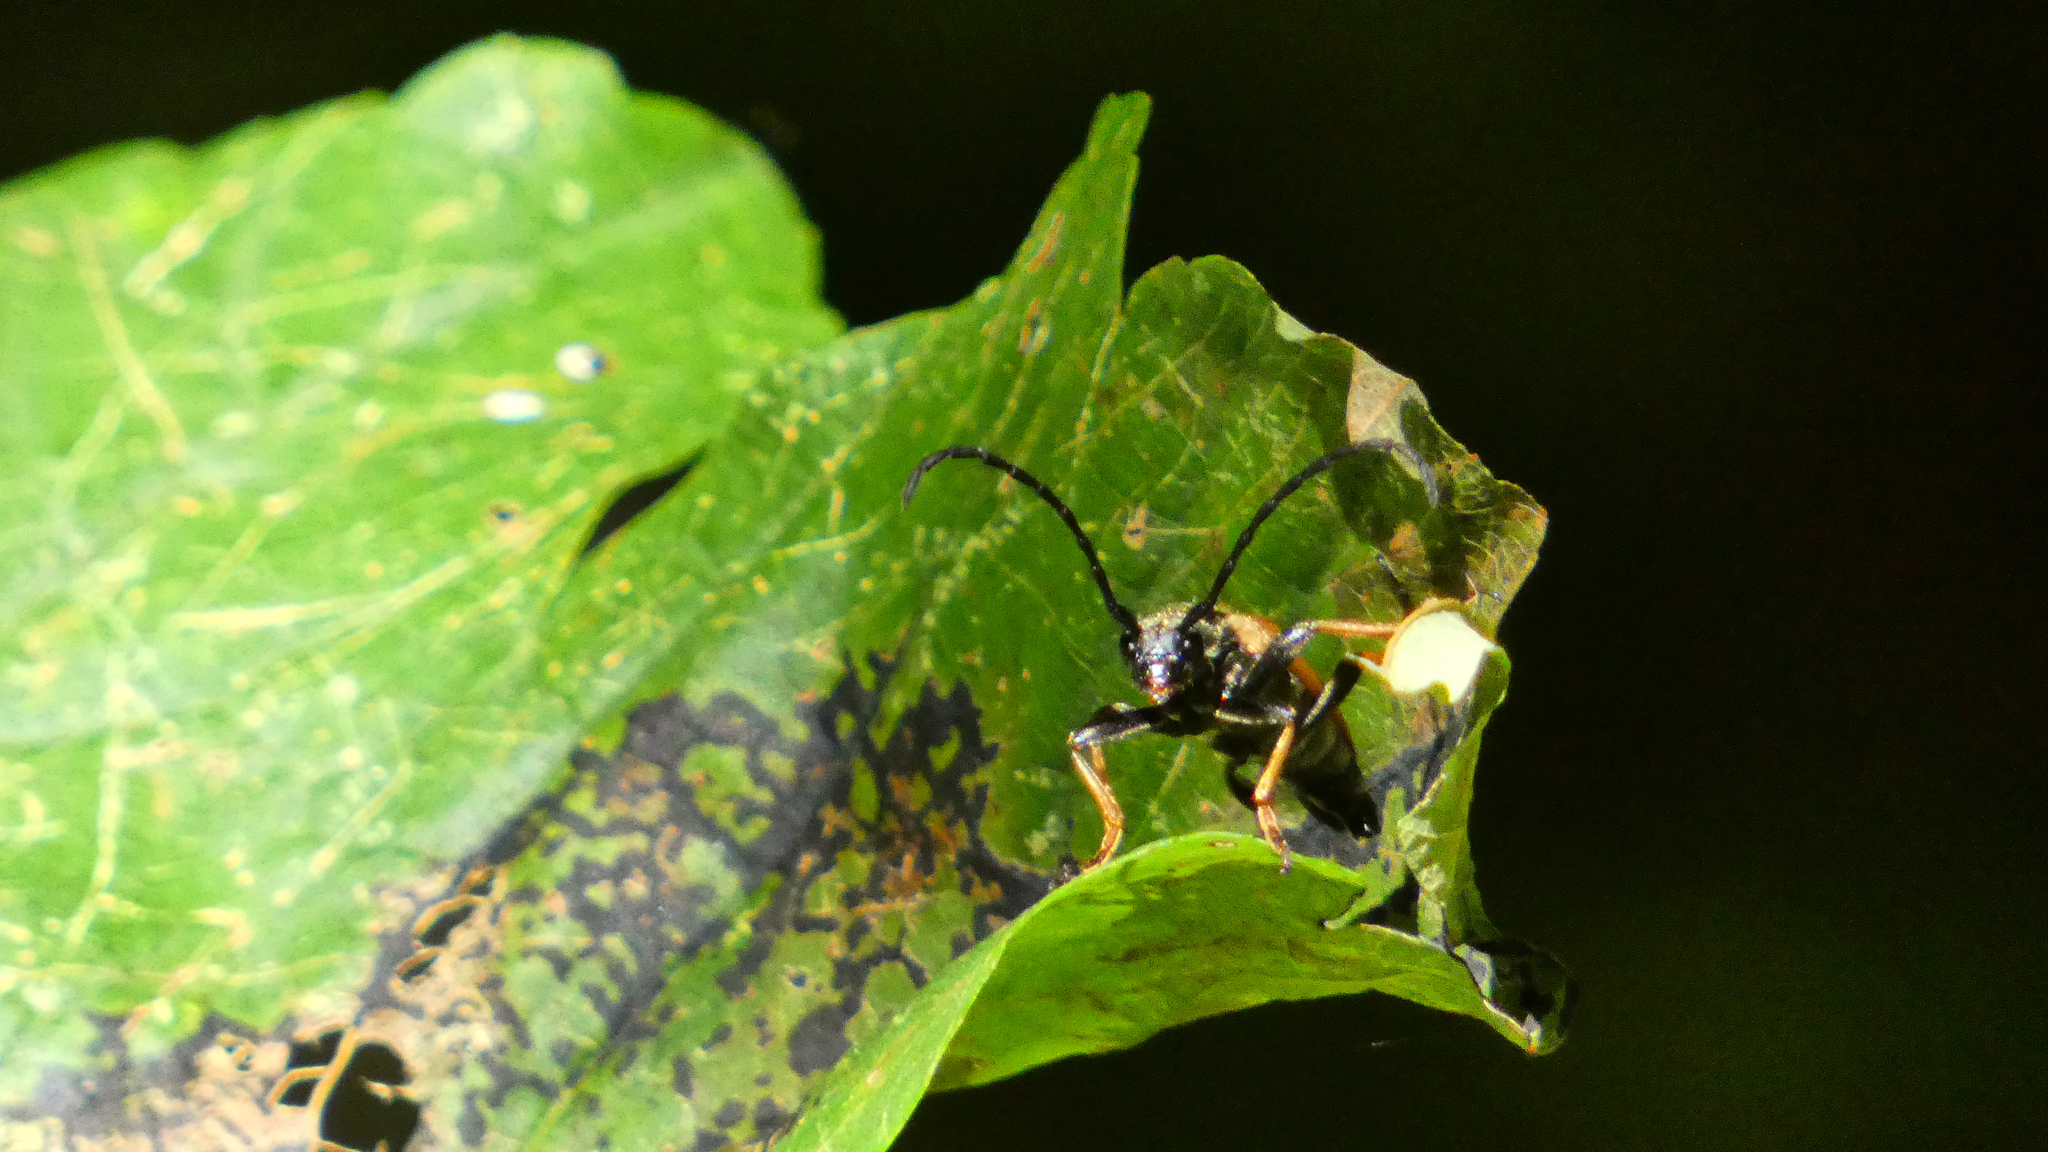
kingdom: Animalia
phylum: Arthropoda
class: Insecta
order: Coleoptera
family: Cerambycidae
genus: Stictoleptura
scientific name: Stictoleptura rubra
